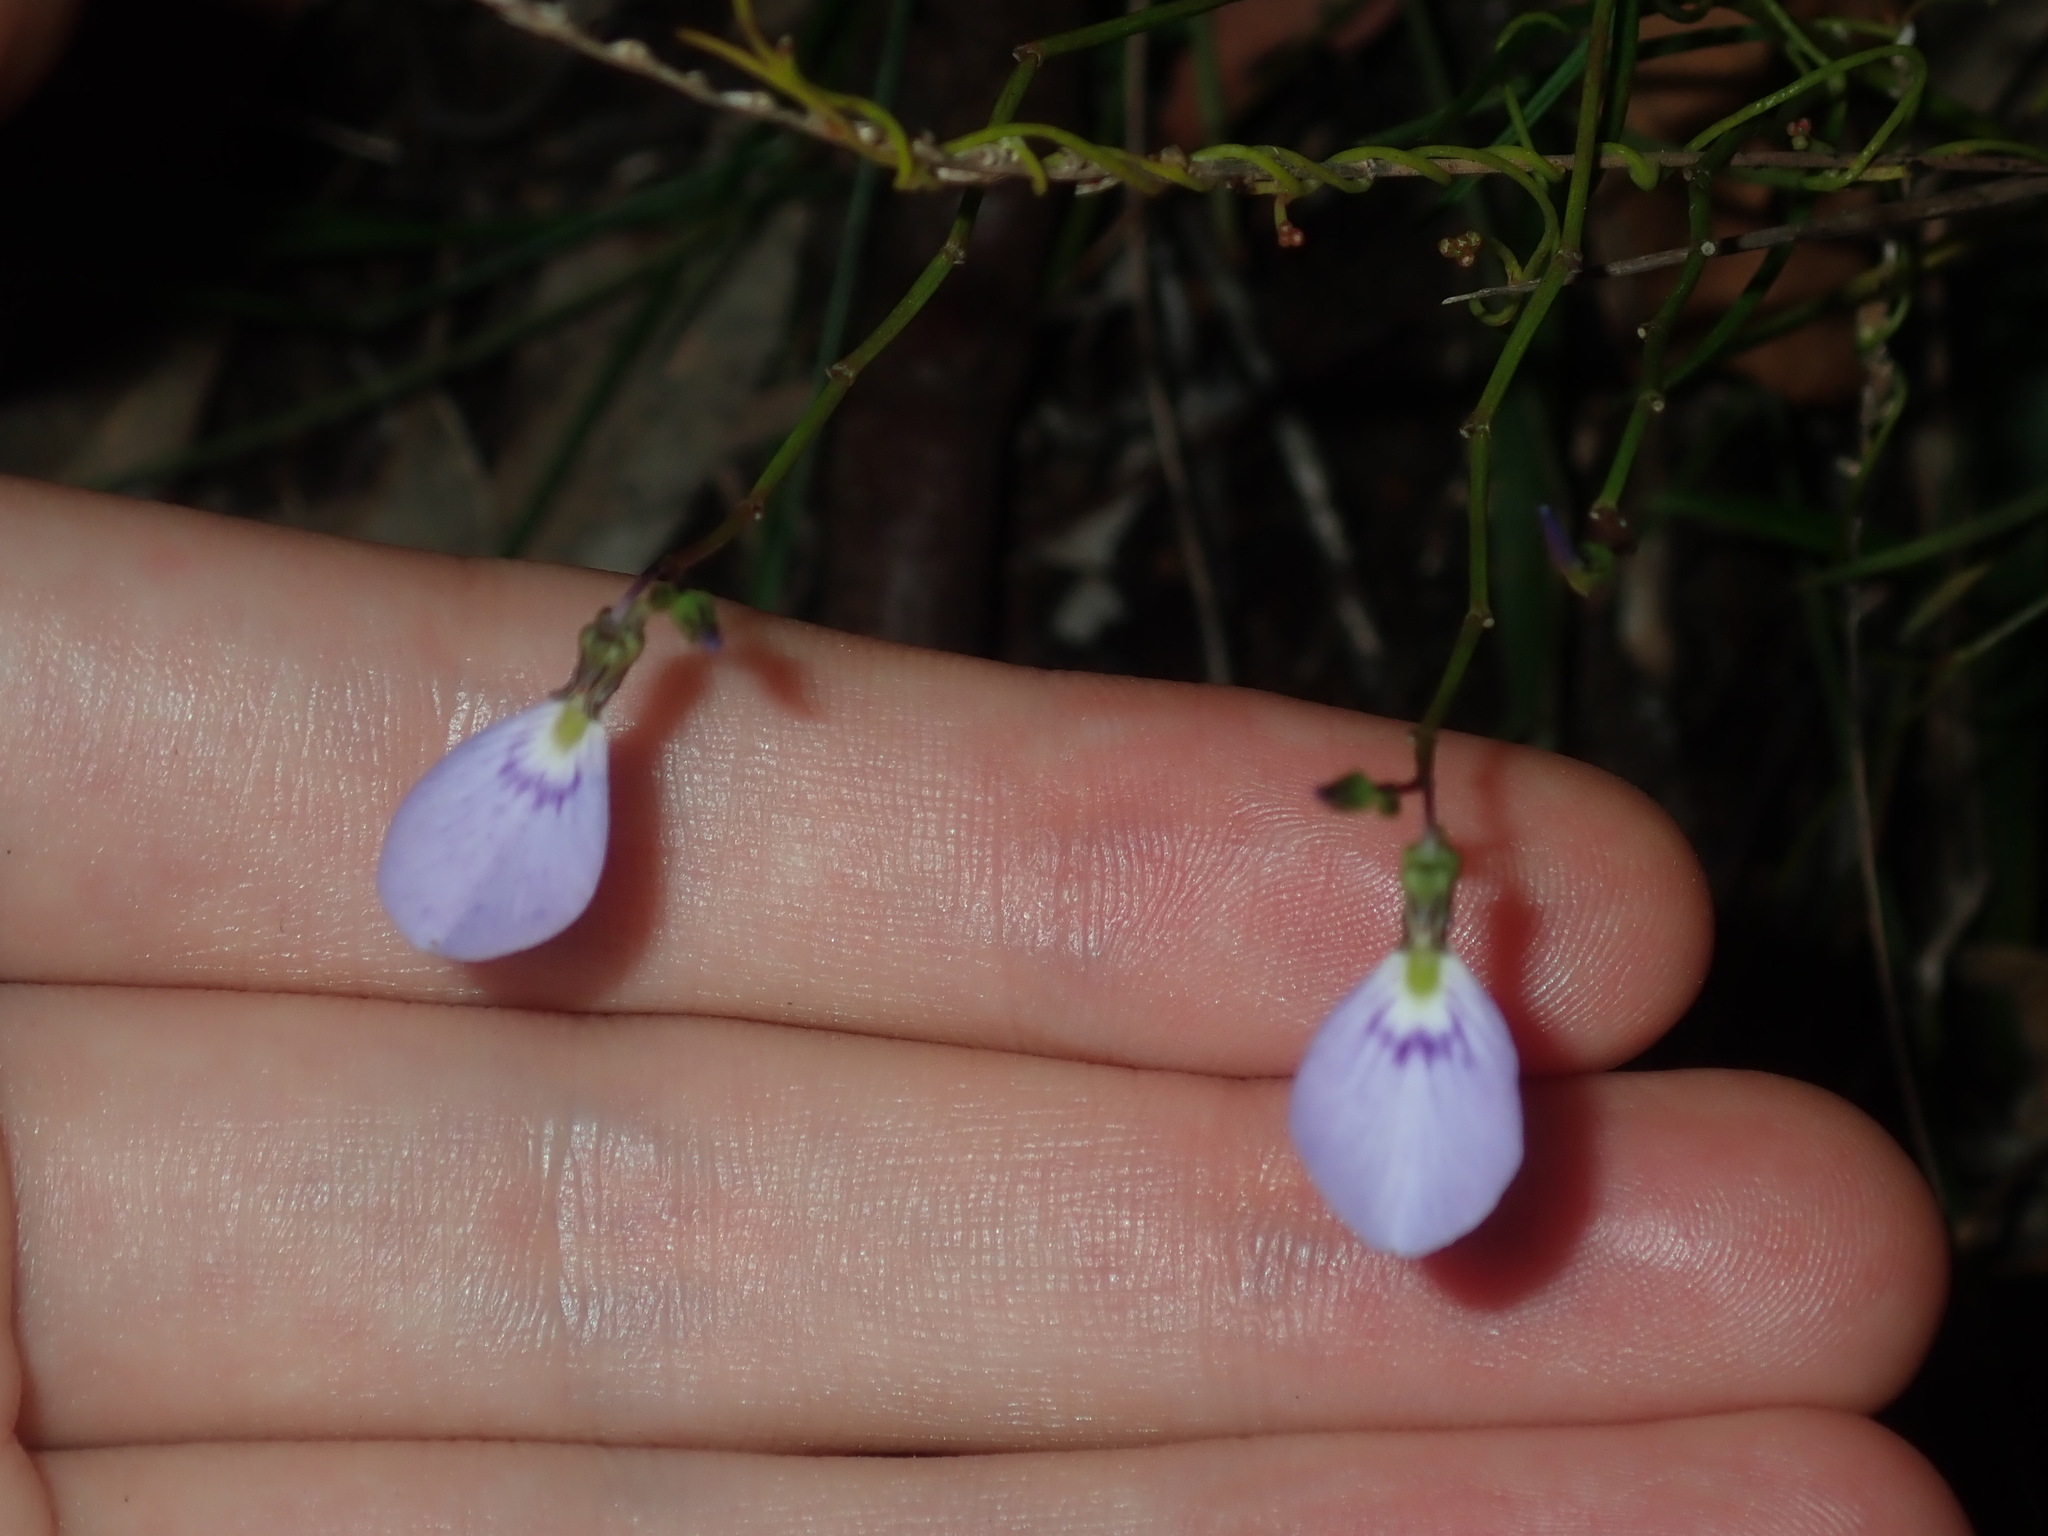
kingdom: Plantae
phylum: Tracheophyta
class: Magnoliopsida
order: Malpighiales
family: Violaceae
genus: Pigea
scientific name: Pigea monopetala
